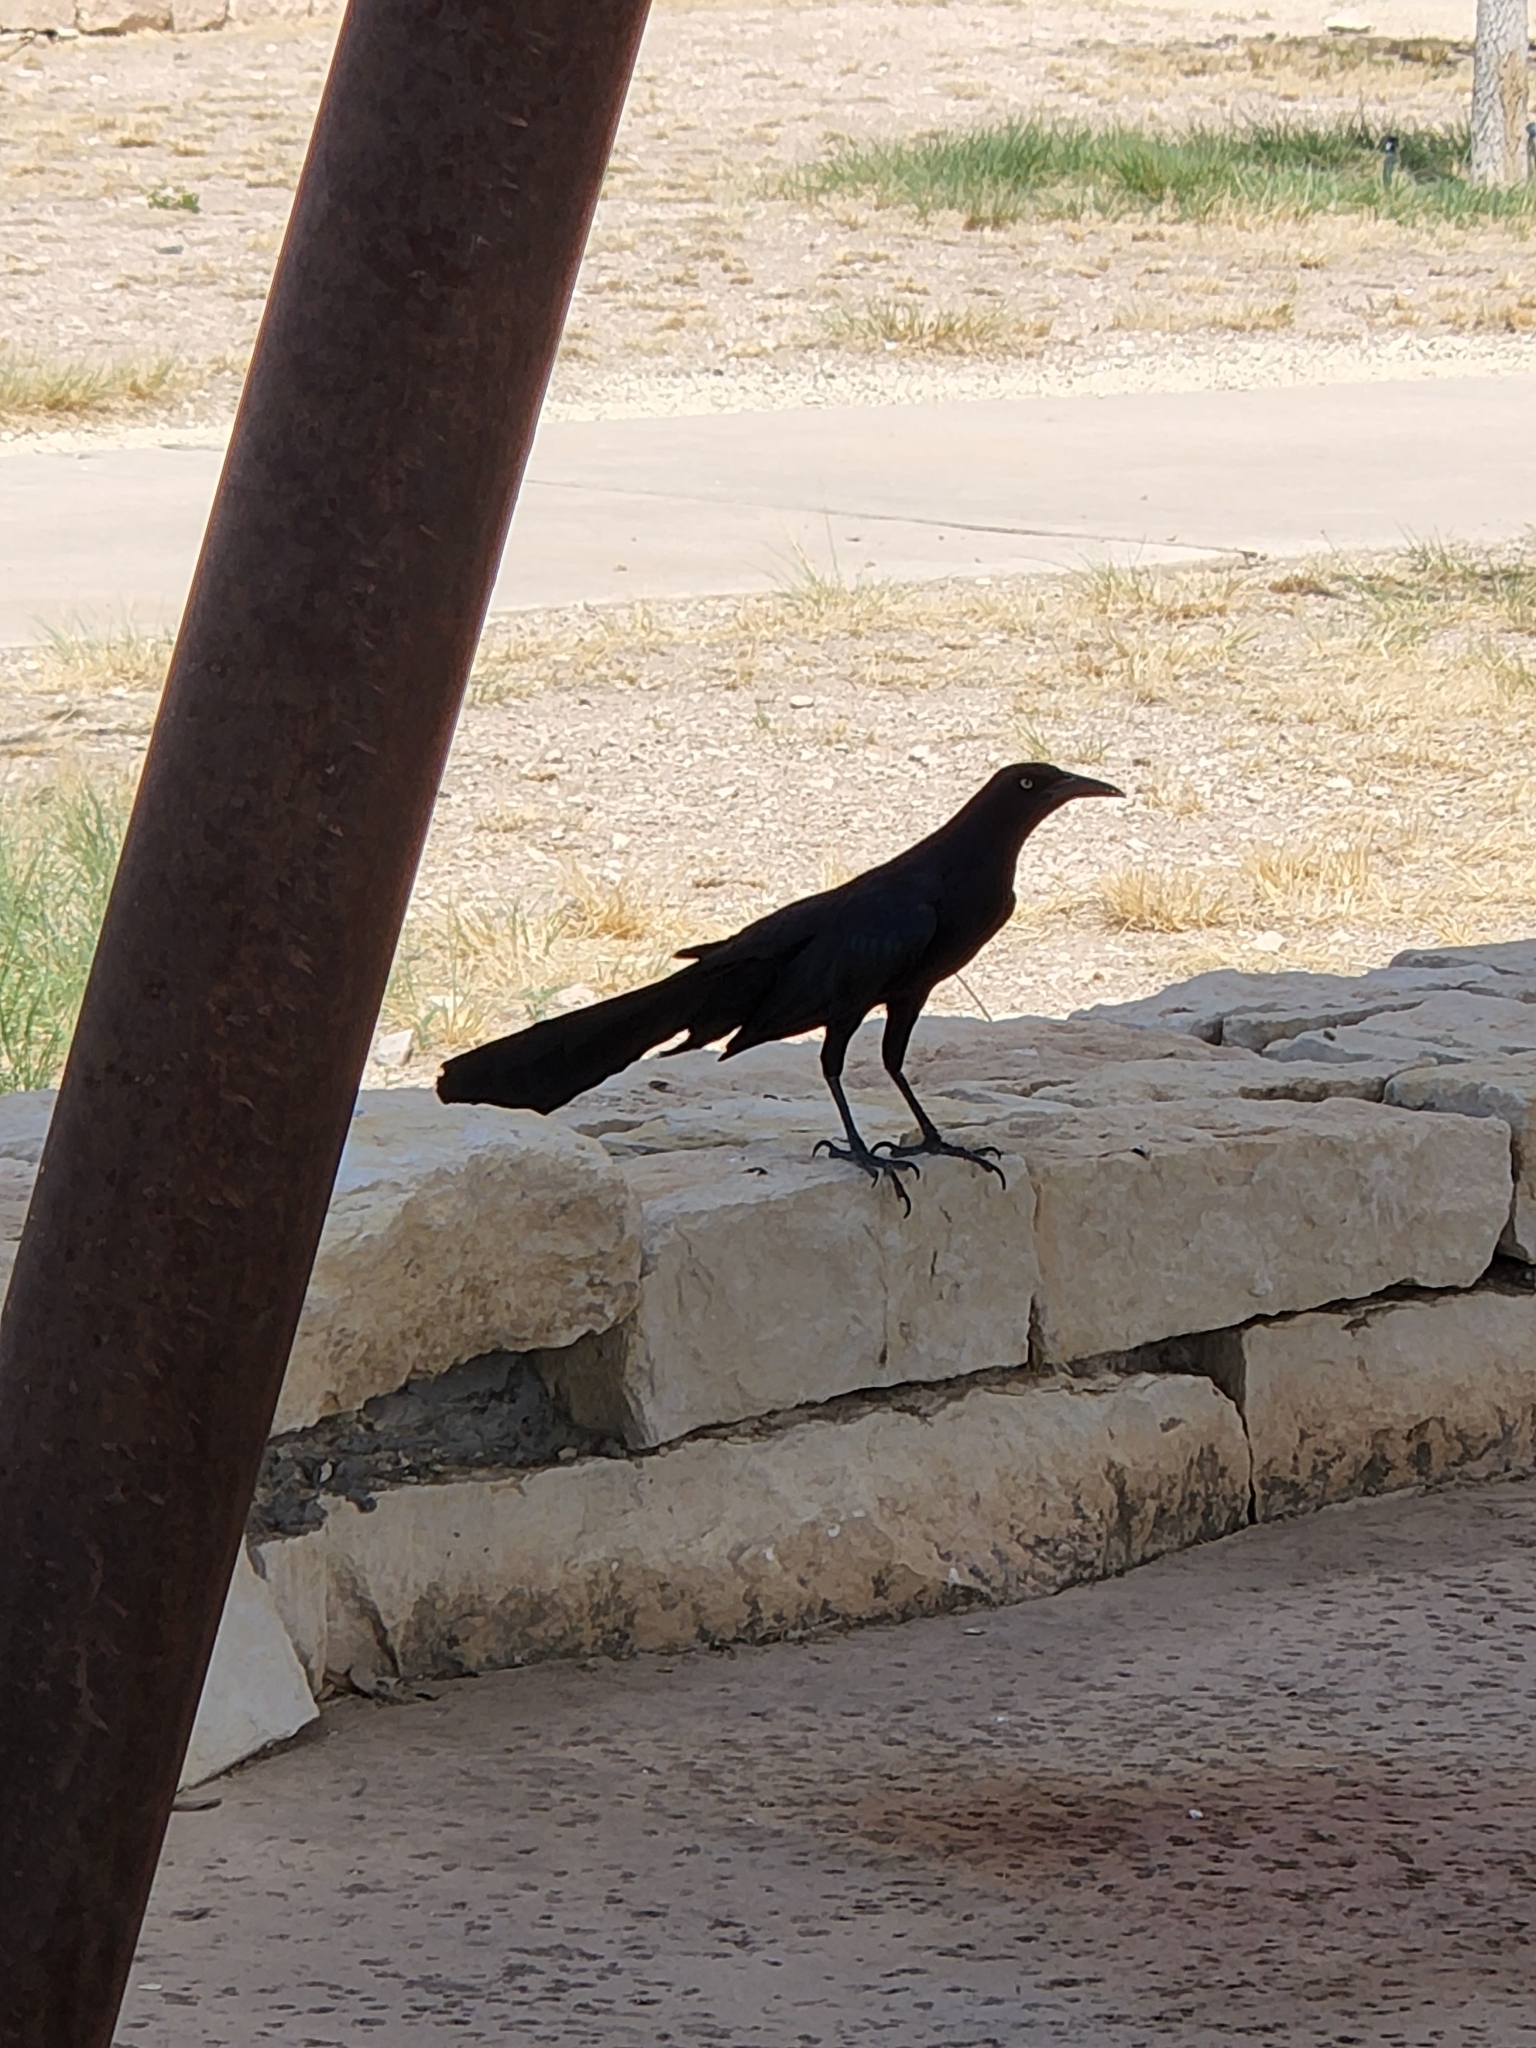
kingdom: Animalia
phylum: Chordata
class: Aves
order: Passeriformes
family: Icteridae
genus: Quiscalus
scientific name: Quiscalus mexicanus
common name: Great-tailed grackle
